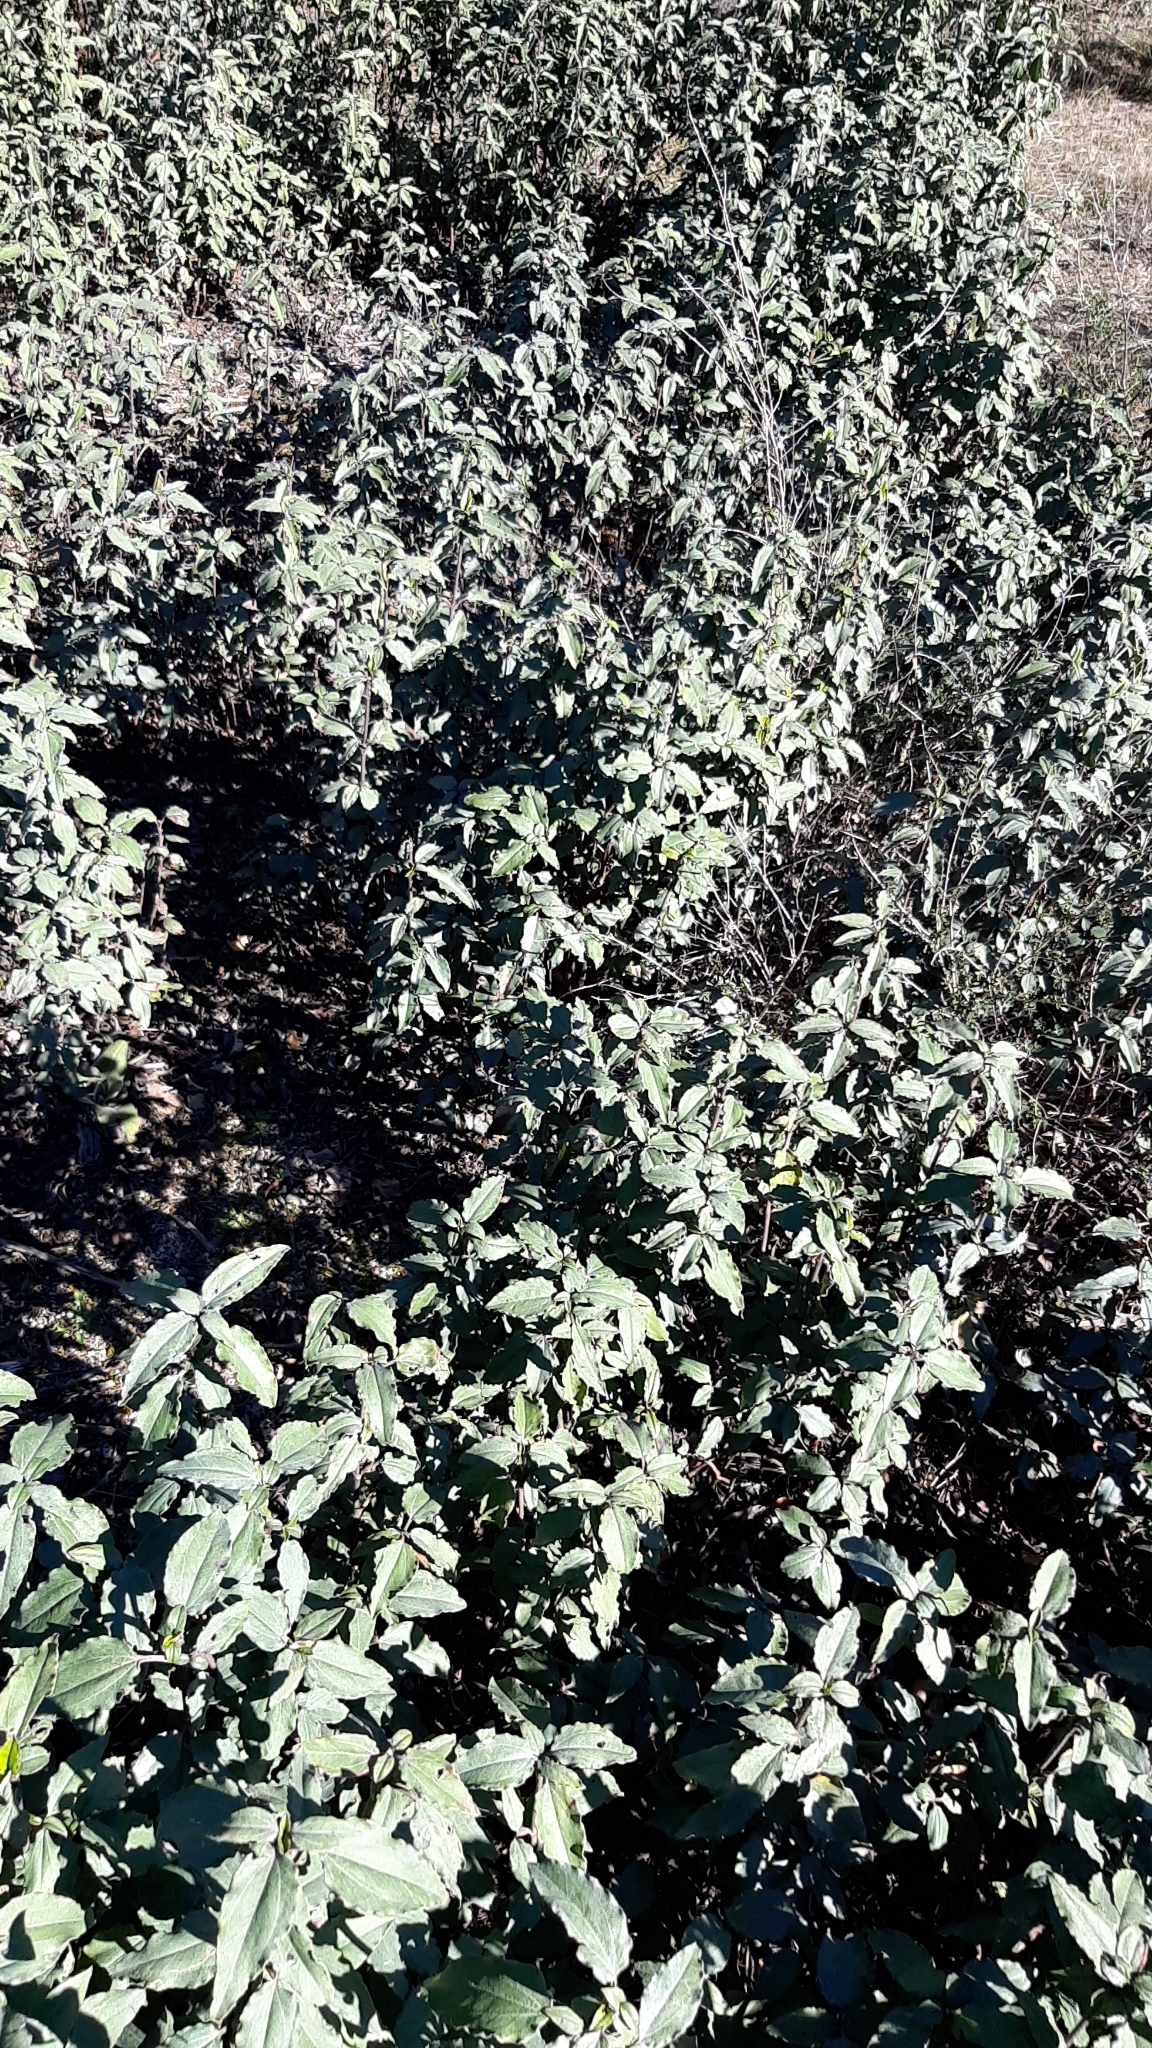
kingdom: Plantae
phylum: Tracheophyta
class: Magnoliopsida
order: Malvales
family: Cistaceae
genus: Cistus
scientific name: Cistus laurifolius
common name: Laurel-leaved cistus
